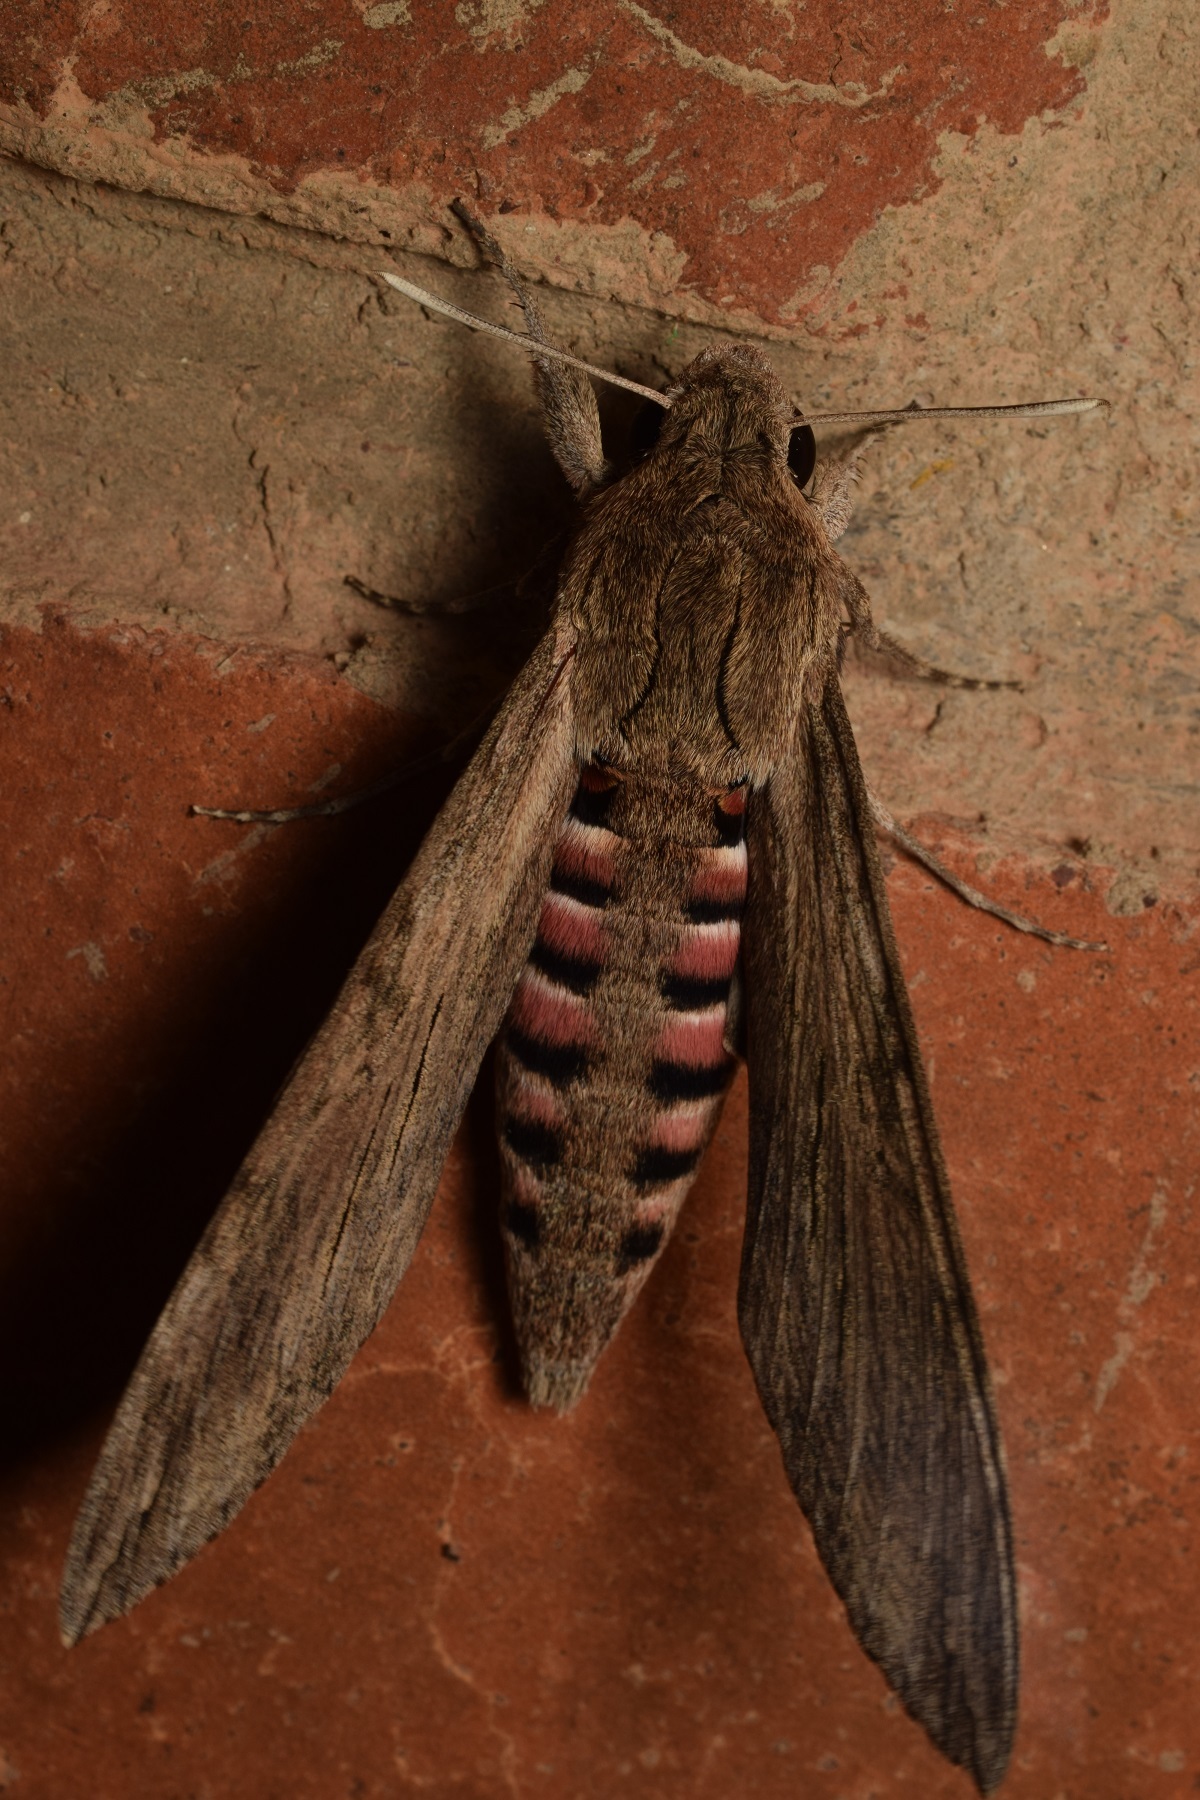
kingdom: Animalia
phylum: Arthropoda
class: Insecta
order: Lepidoptera
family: Sphingidae
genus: Agrius
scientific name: Agrius convolvuli
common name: Convolvulus hawkmoth
